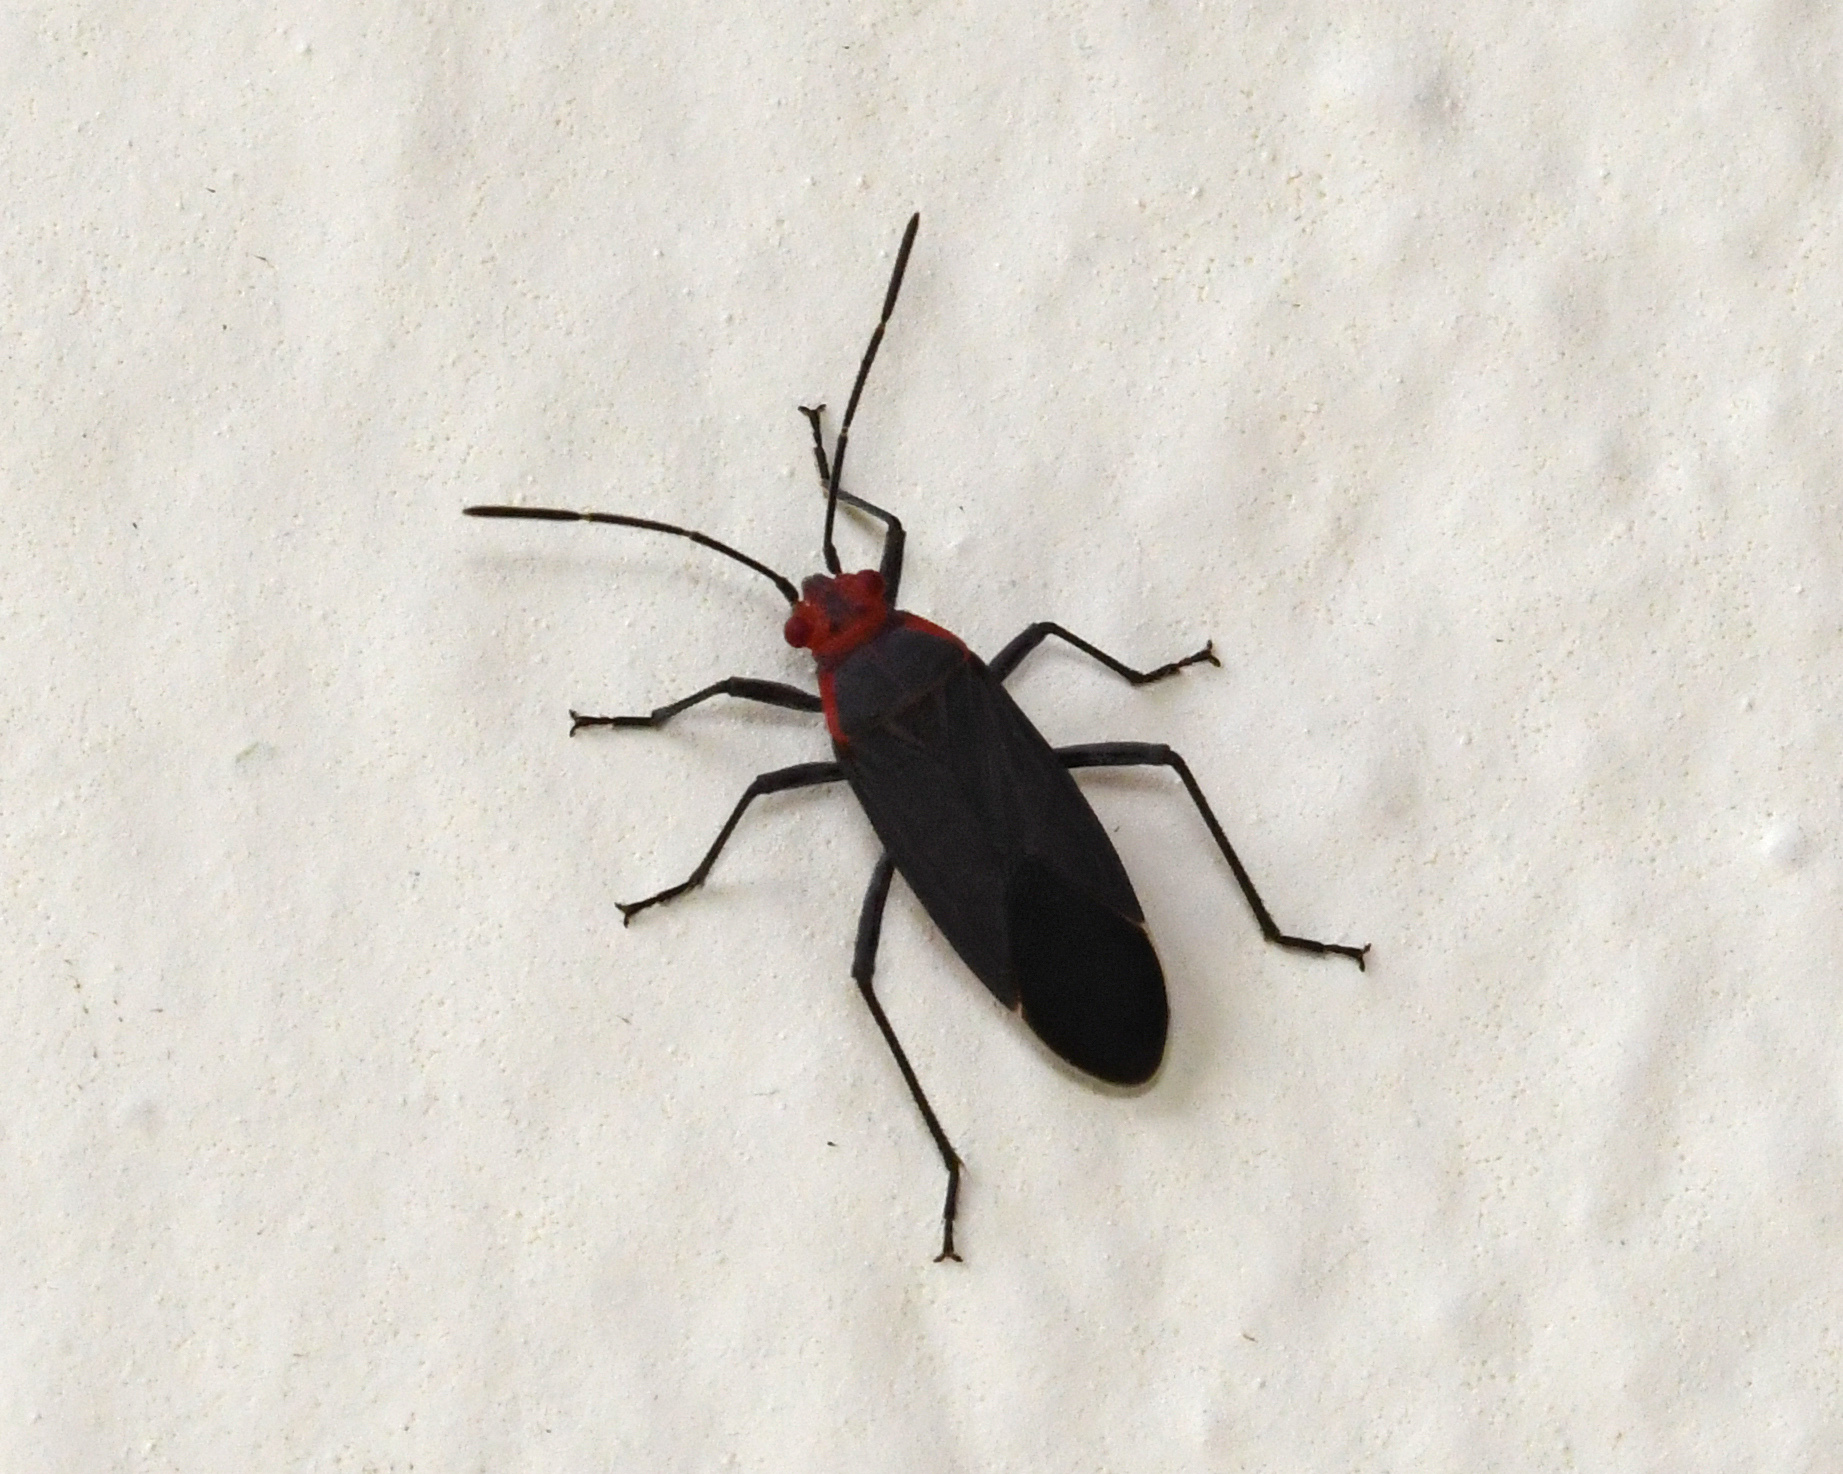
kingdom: Animalia
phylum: Arthropoda
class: Insecta
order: Hemiptera
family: Rhopalidae
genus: Jadera
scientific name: Jadera antica
